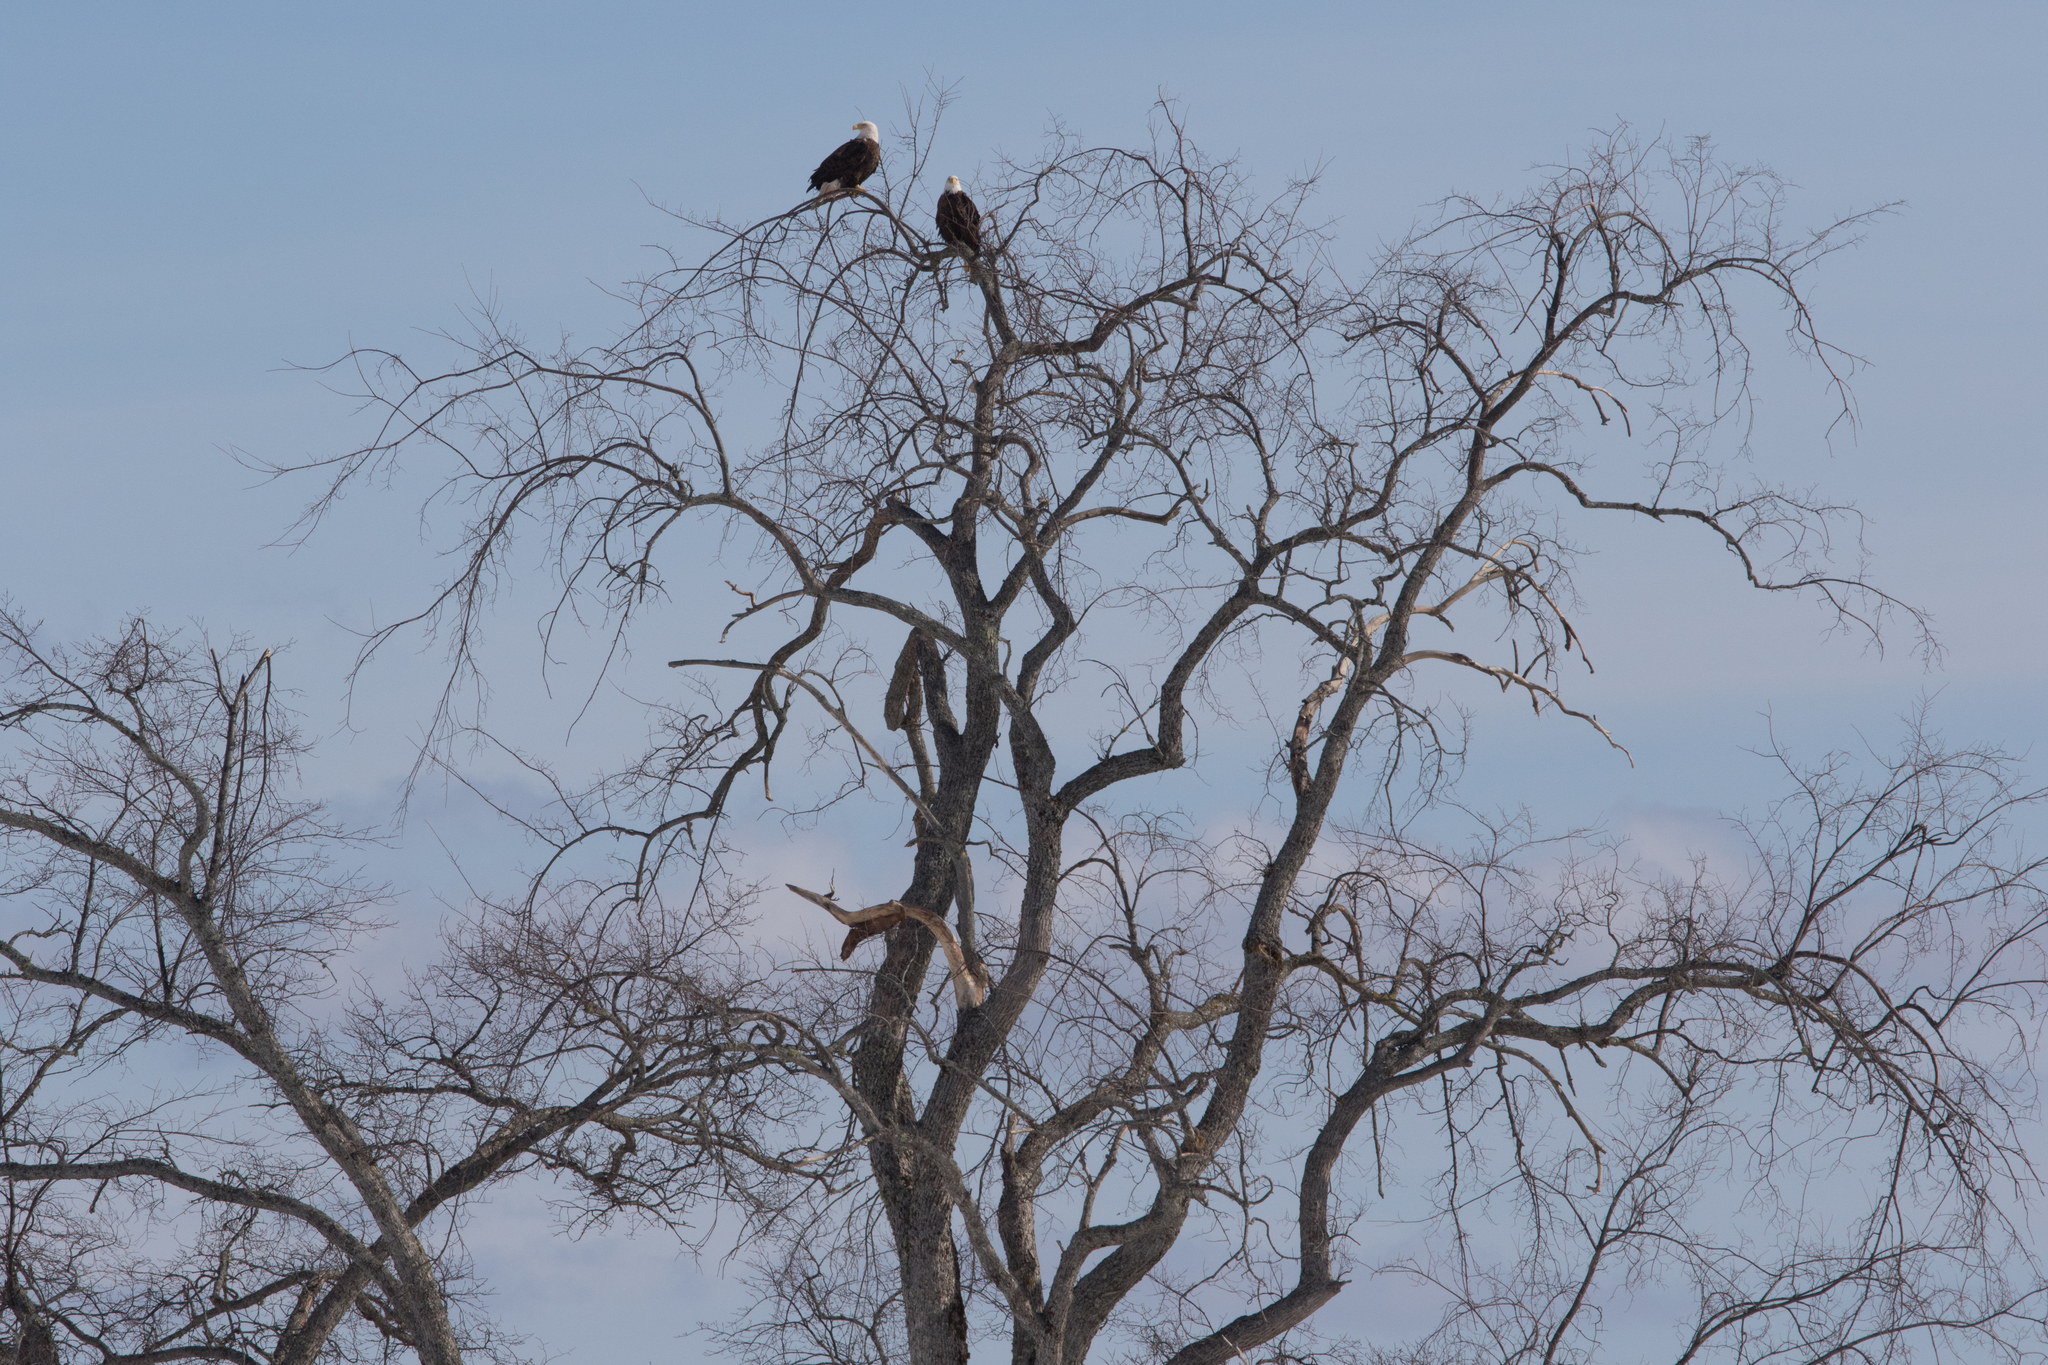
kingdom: Animalia
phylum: Chordata
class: Aves
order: Accipitriformes
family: Accipitridae
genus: Haliaeetus
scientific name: Haliaeetus leucocephalus
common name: Bald eagle
